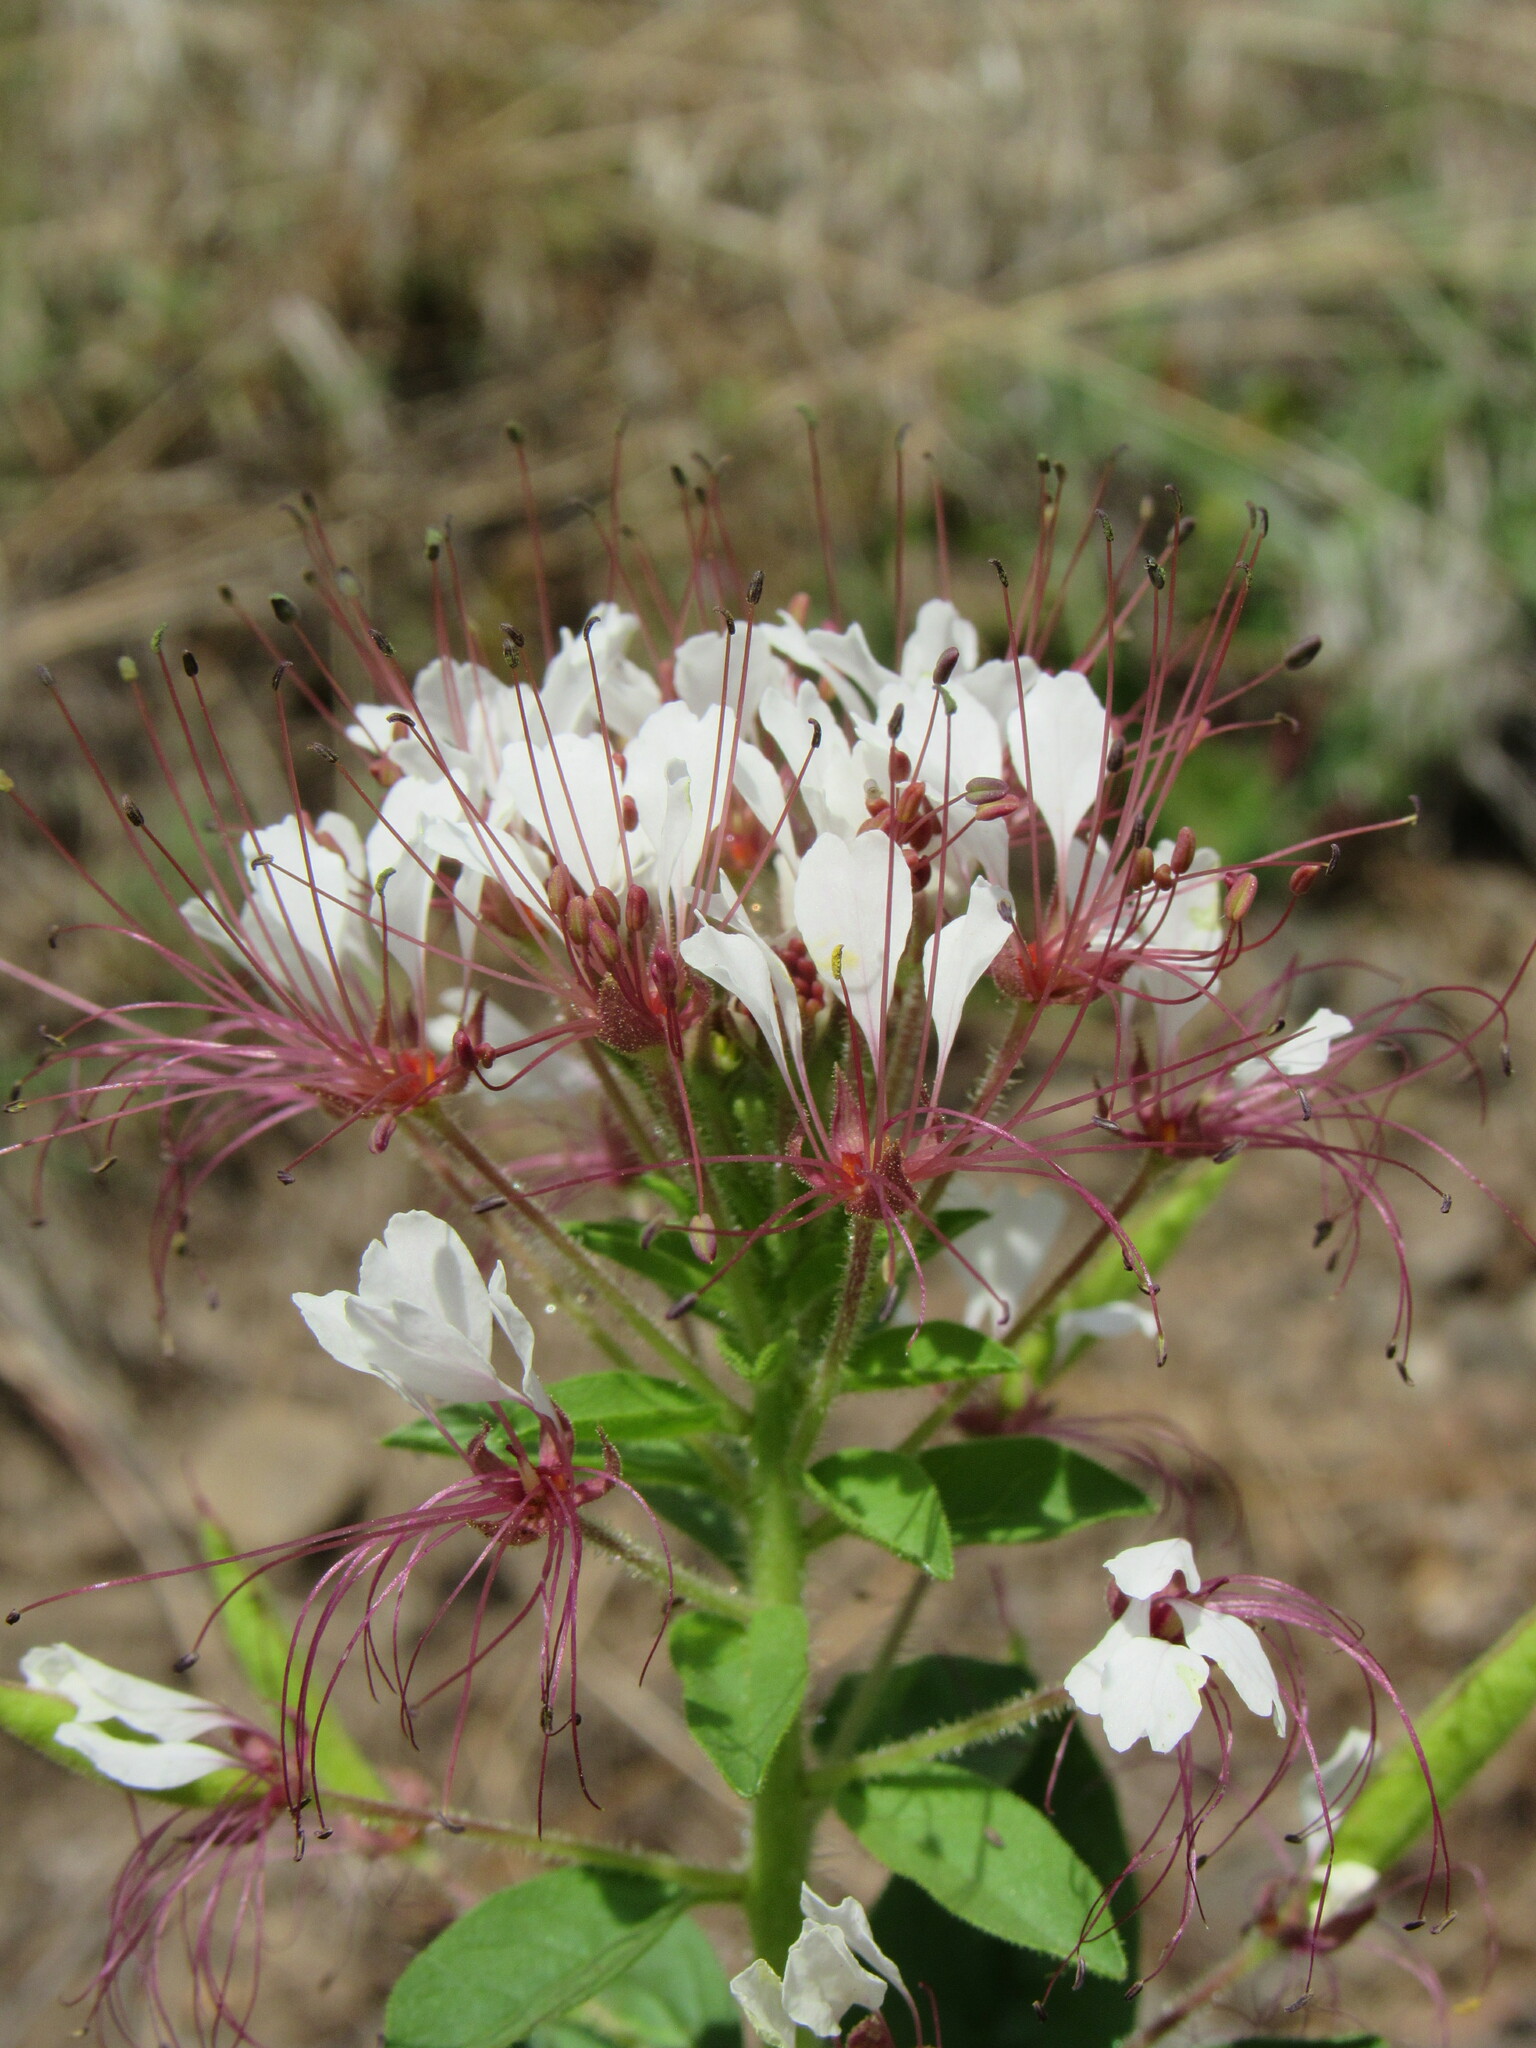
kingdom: Plantae
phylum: Tracheophyta
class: Magnoliopsida
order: Brassicales
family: Cleomaceae
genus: Polanisia
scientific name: Polanisia dodecandra
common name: Clammyweed
